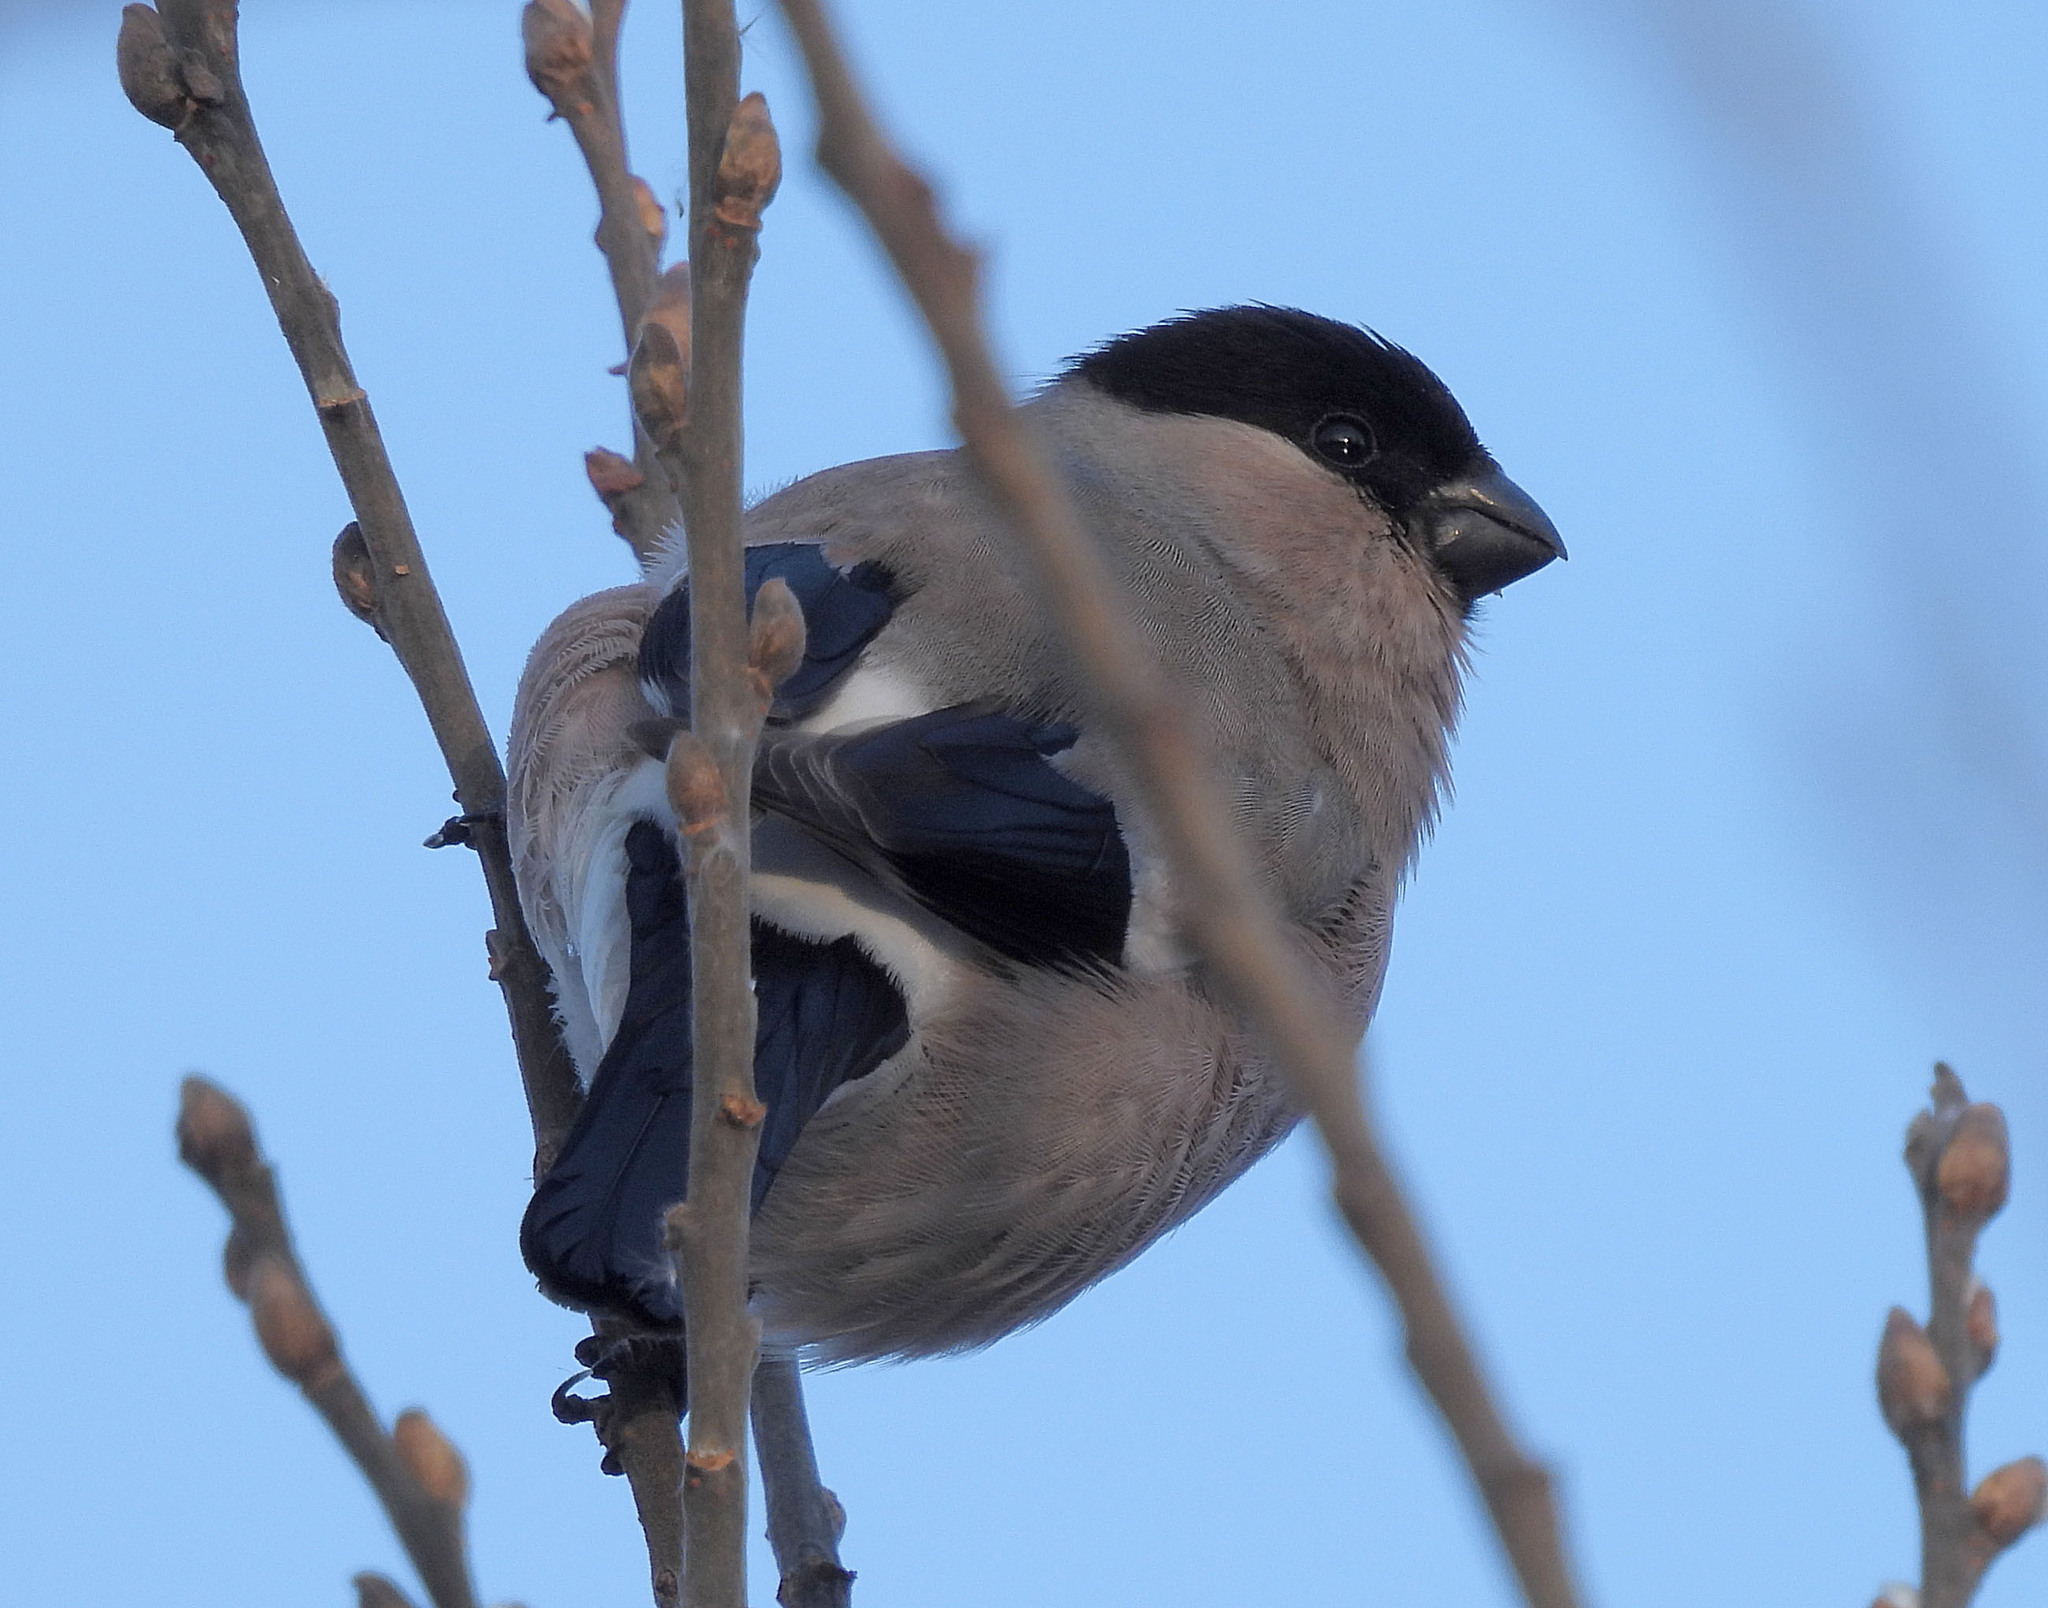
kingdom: Animalia
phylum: Chordata
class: Aves
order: Passeriformes
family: Fringillidae
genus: Pyrrhula
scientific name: Pyrrhula pyrrhula
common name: Eurasian bullfinch
